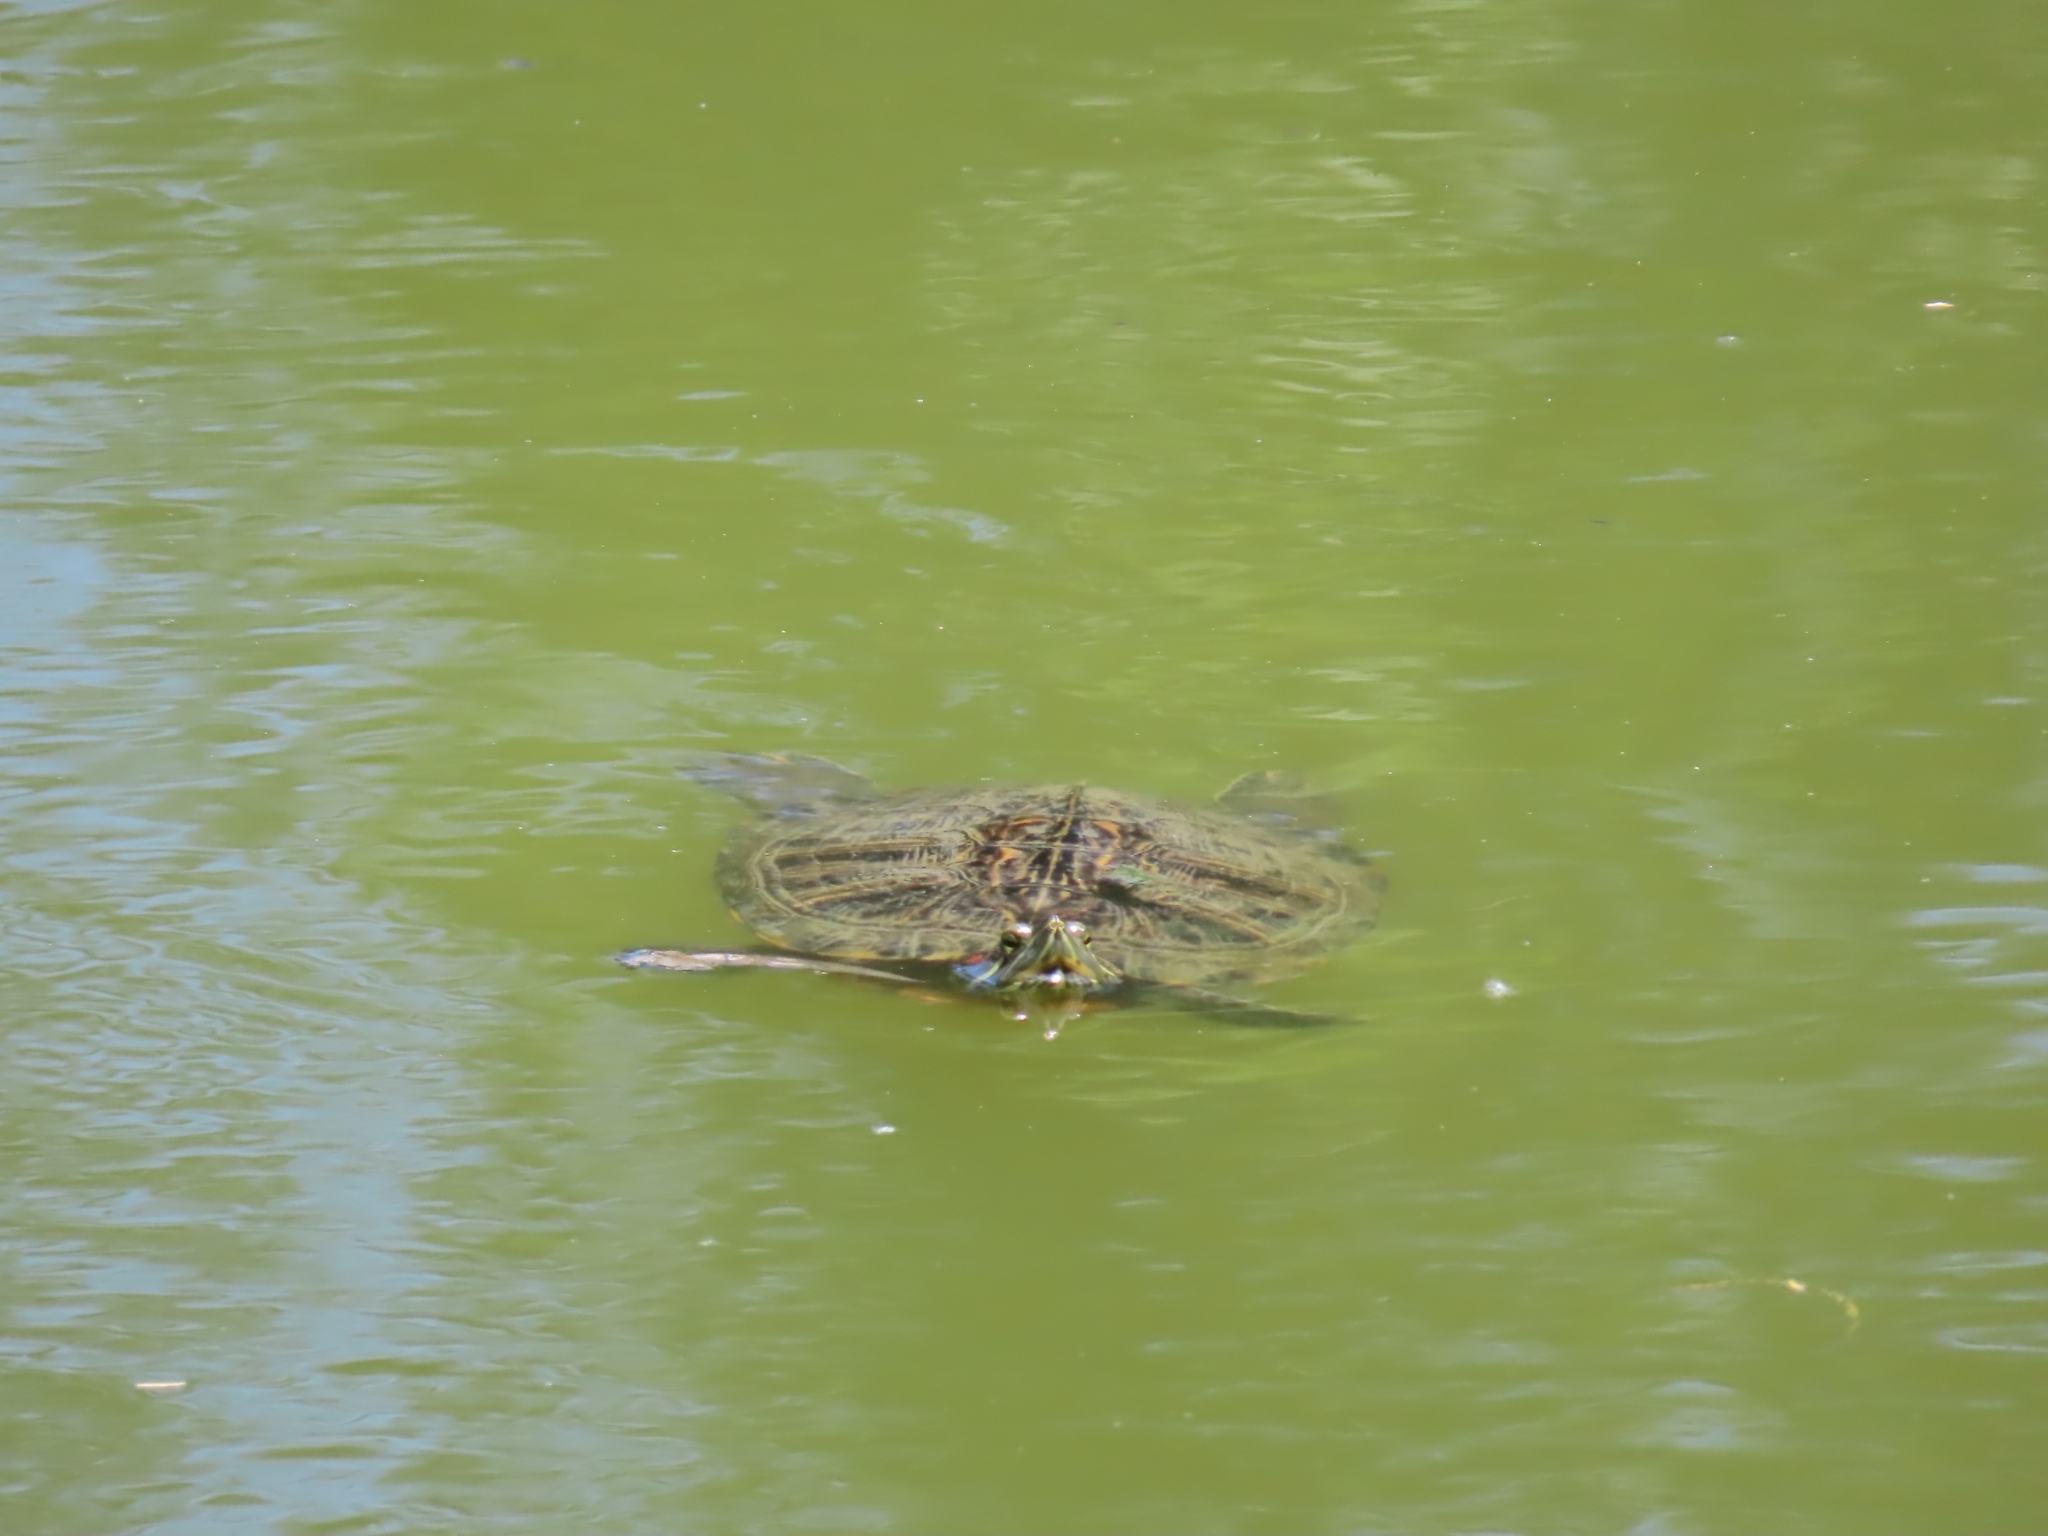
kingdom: Animalia
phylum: Chordata
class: Testudines
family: Emydidae
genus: Trachemys
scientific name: Trachemys scripta
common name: Slider
